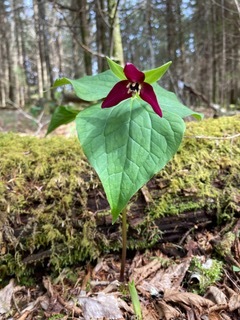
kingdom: Plantae
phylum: Tracheophyta
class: Liliopsida
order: Liliales
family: Melanthiaceae
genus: Trillium
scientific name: Trillium erectum
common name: Purple trillium
